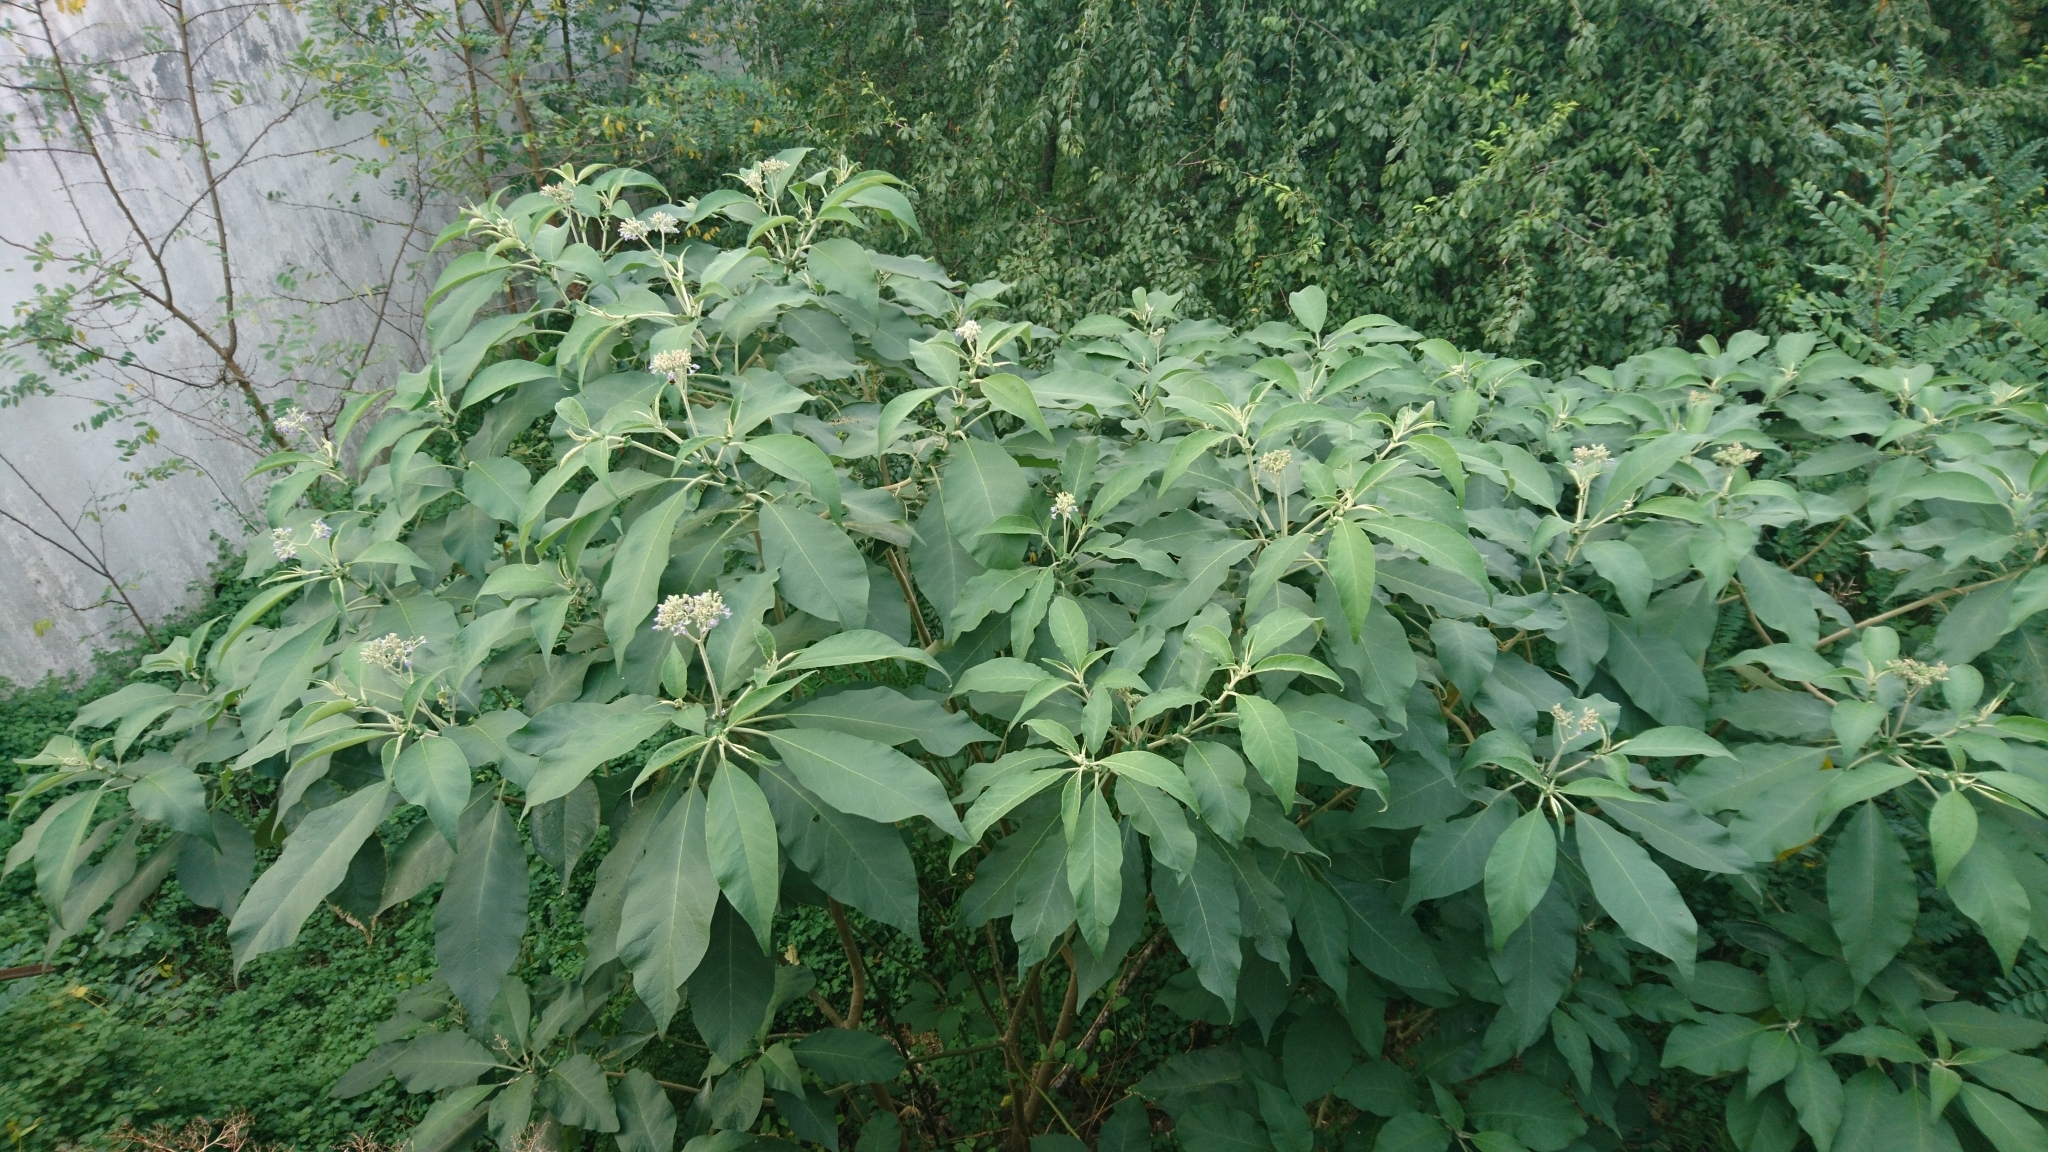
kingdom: Plantae
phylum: Tracheophyta
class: Magnoliopsida
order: Solanales
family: Solanaceae
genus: Solanum
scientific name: Solanum mauritianum
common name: Earleaf nightshade
